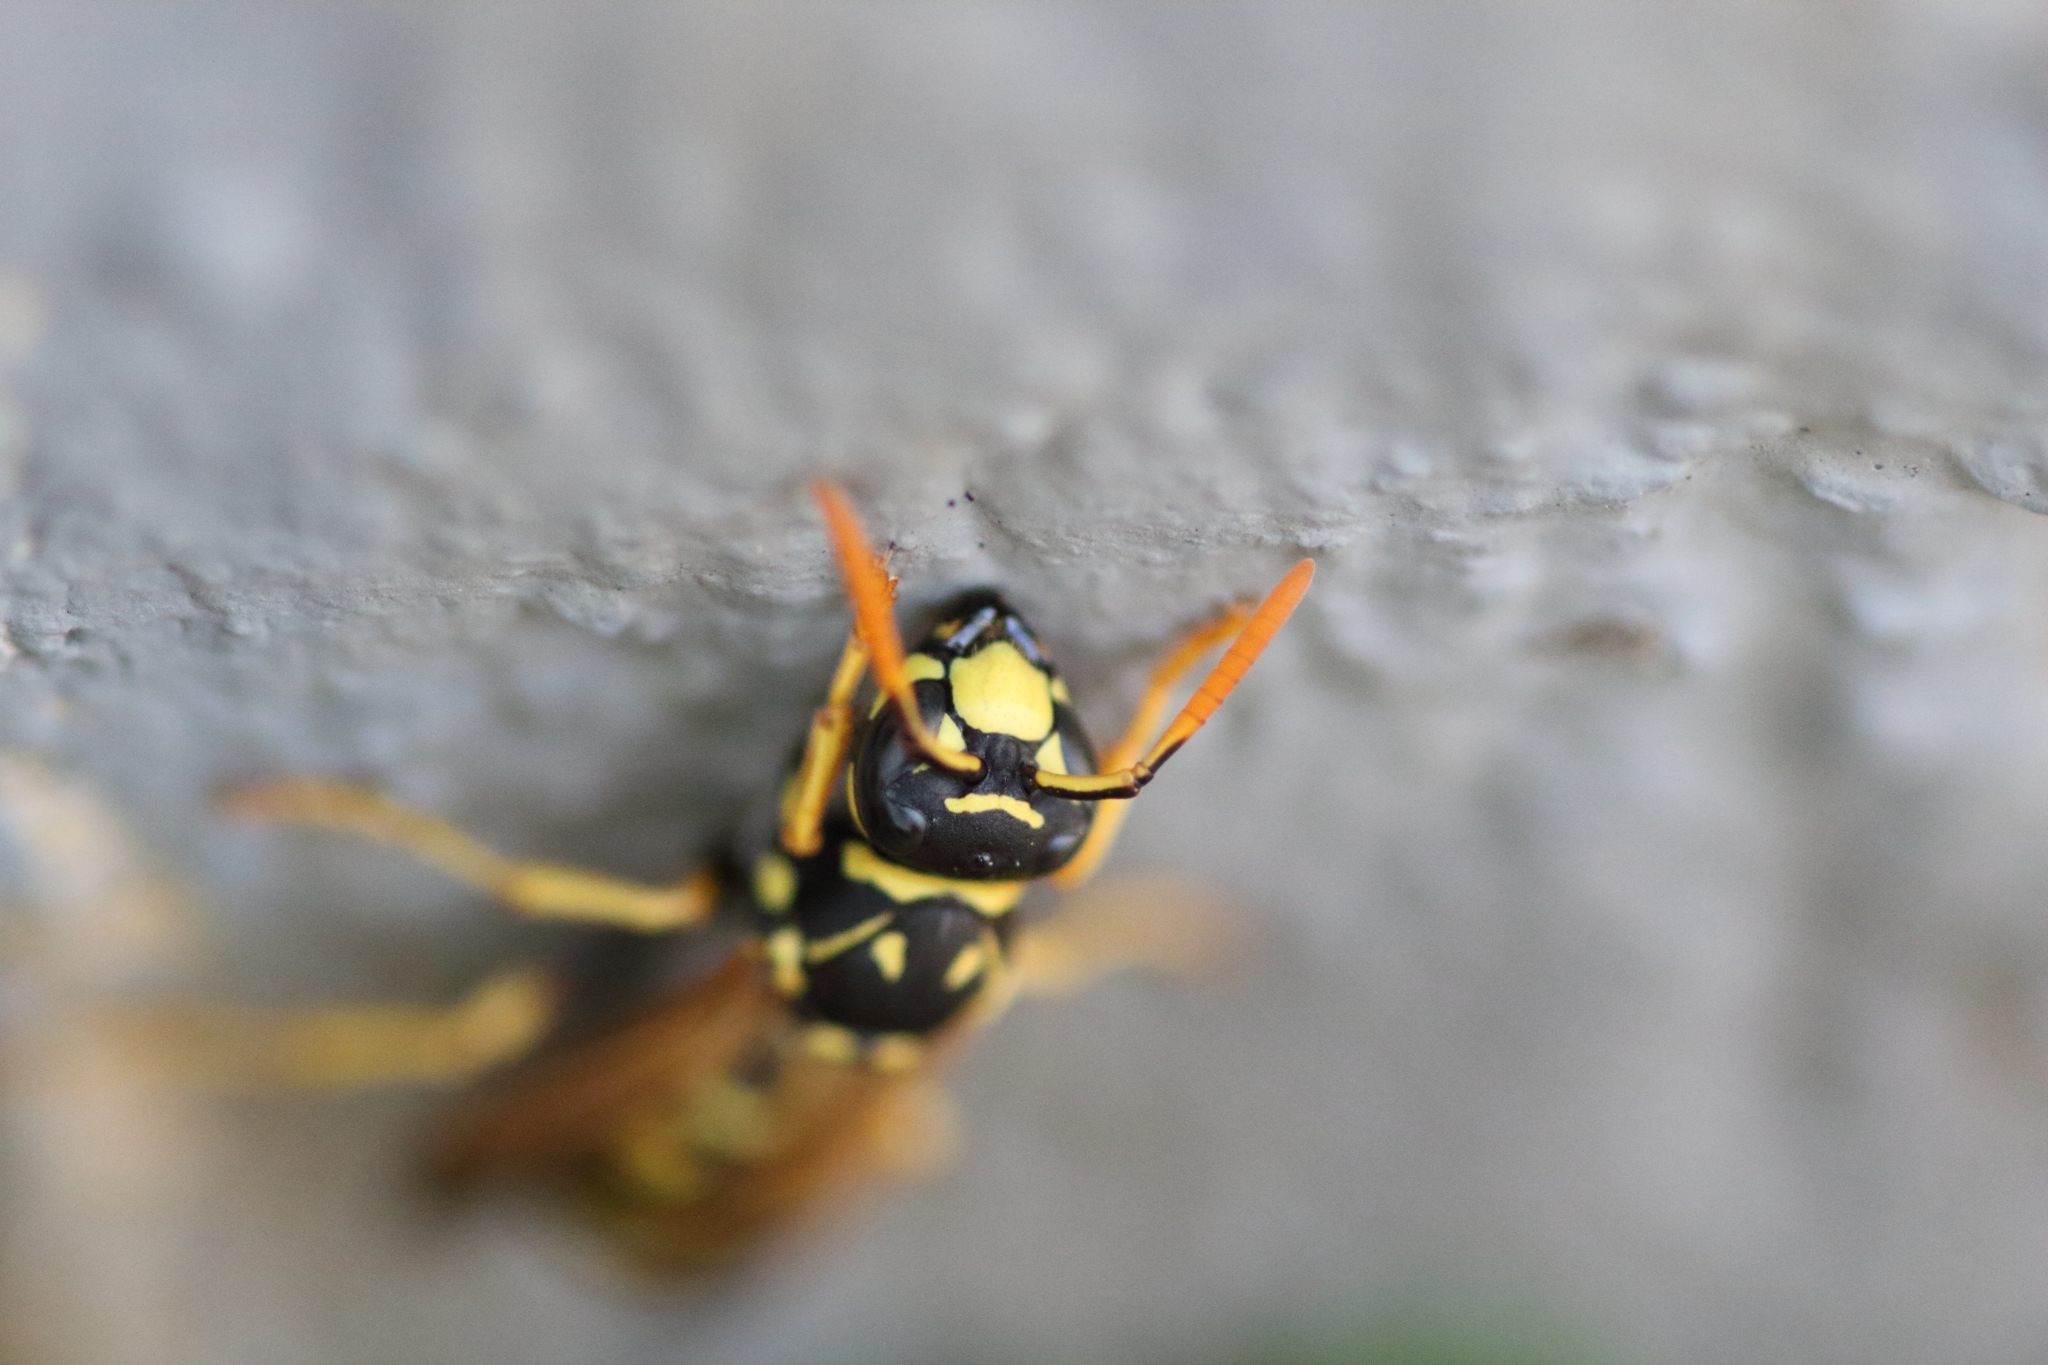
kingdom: Animalia
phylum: Arthropoda
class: Insecta
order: Hymenoptera
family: Eumenidae
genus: Polistes
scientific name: Polistes dominula
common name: Paper wasp
